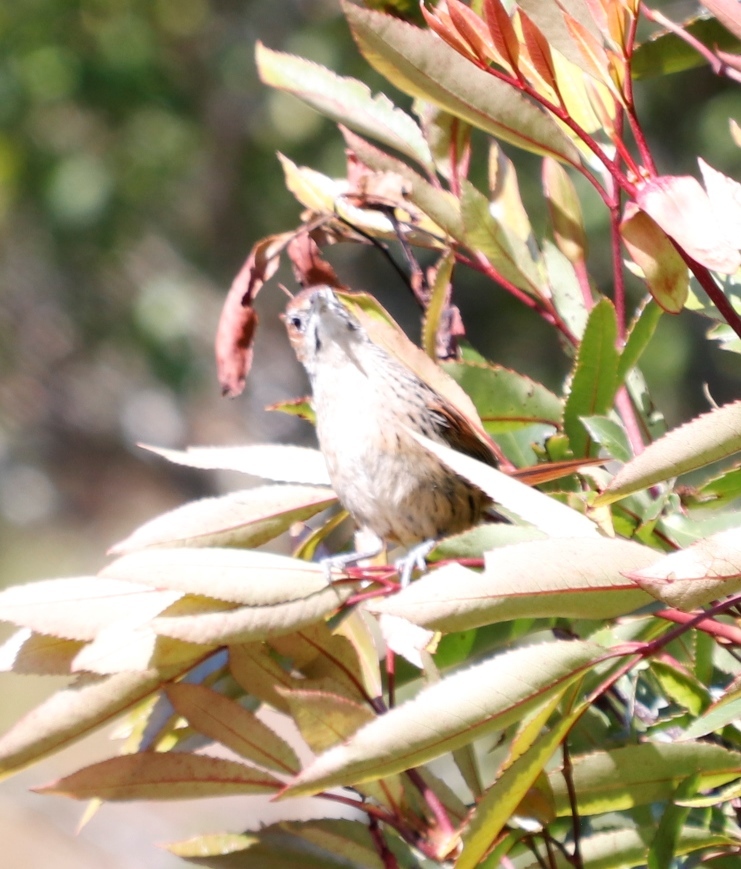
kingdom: Animalia
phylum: Chordata
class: Aves
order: Passeriformes
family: Macrosphenidae
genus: Sphenoeacus
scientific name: Sphenoeacus afer
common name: Cape grassbird
